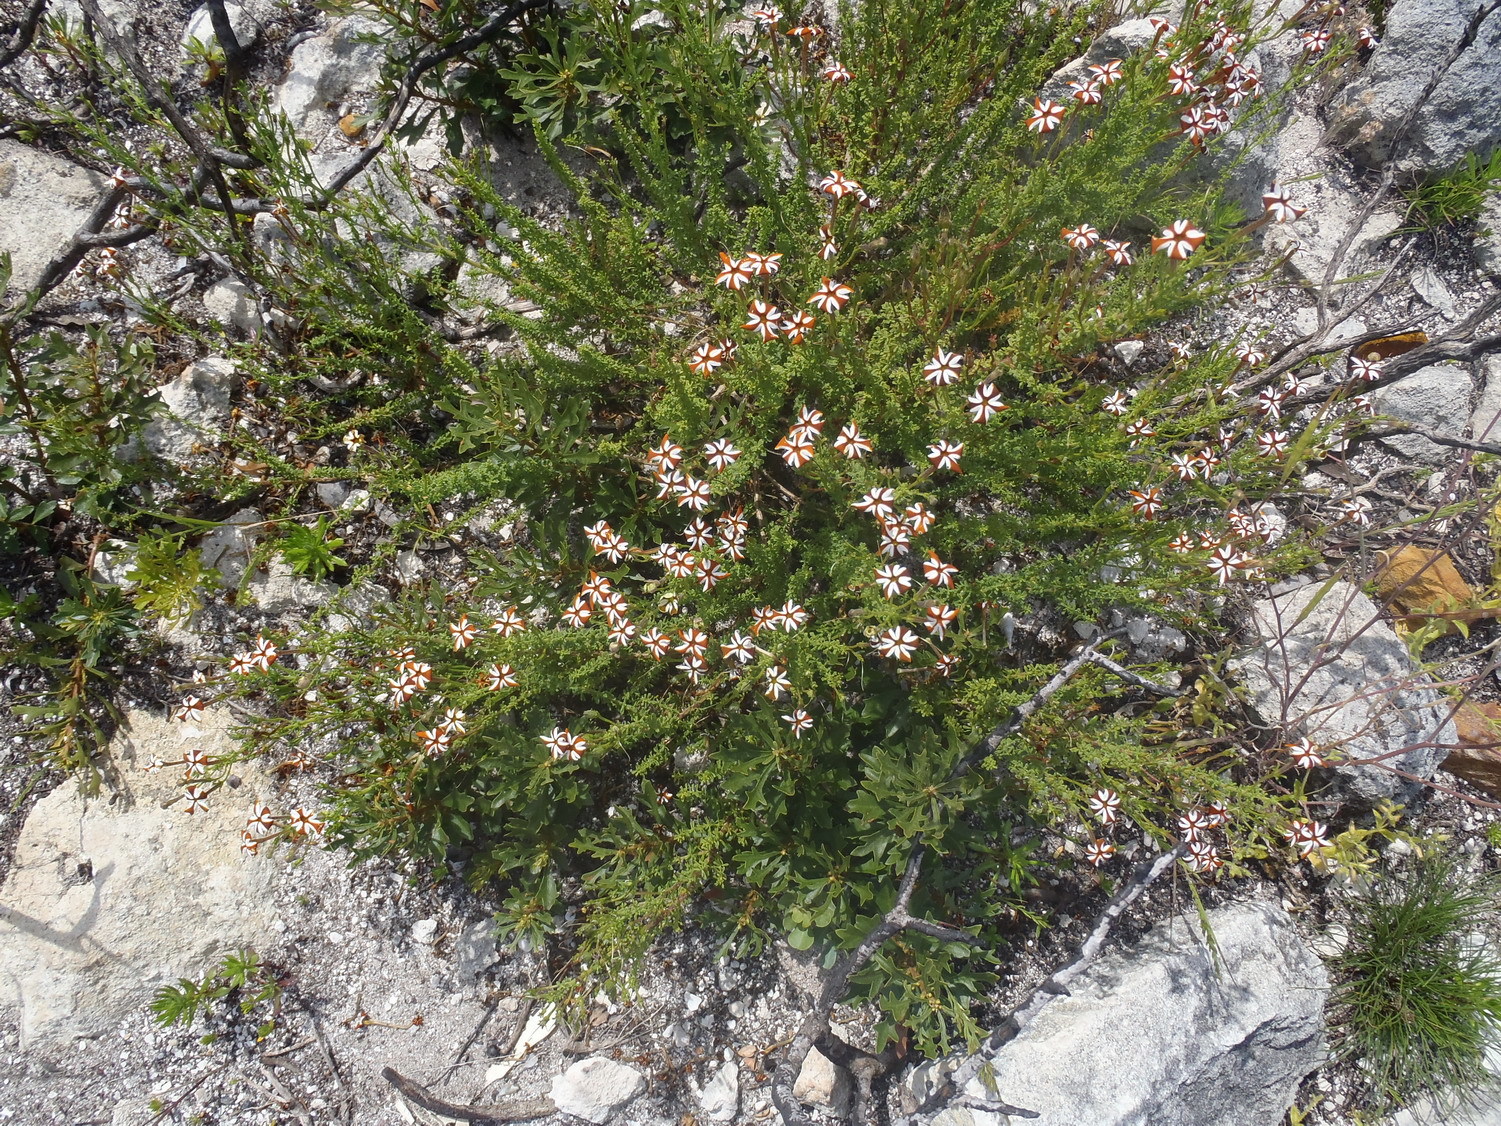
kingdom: Plantae
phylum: Tracheophyta
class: Magnoliopsida
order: Lamiales
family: Scrophulariaceae
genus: Jamesbrittenia
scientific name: Jamesbrittenia albomarginata
